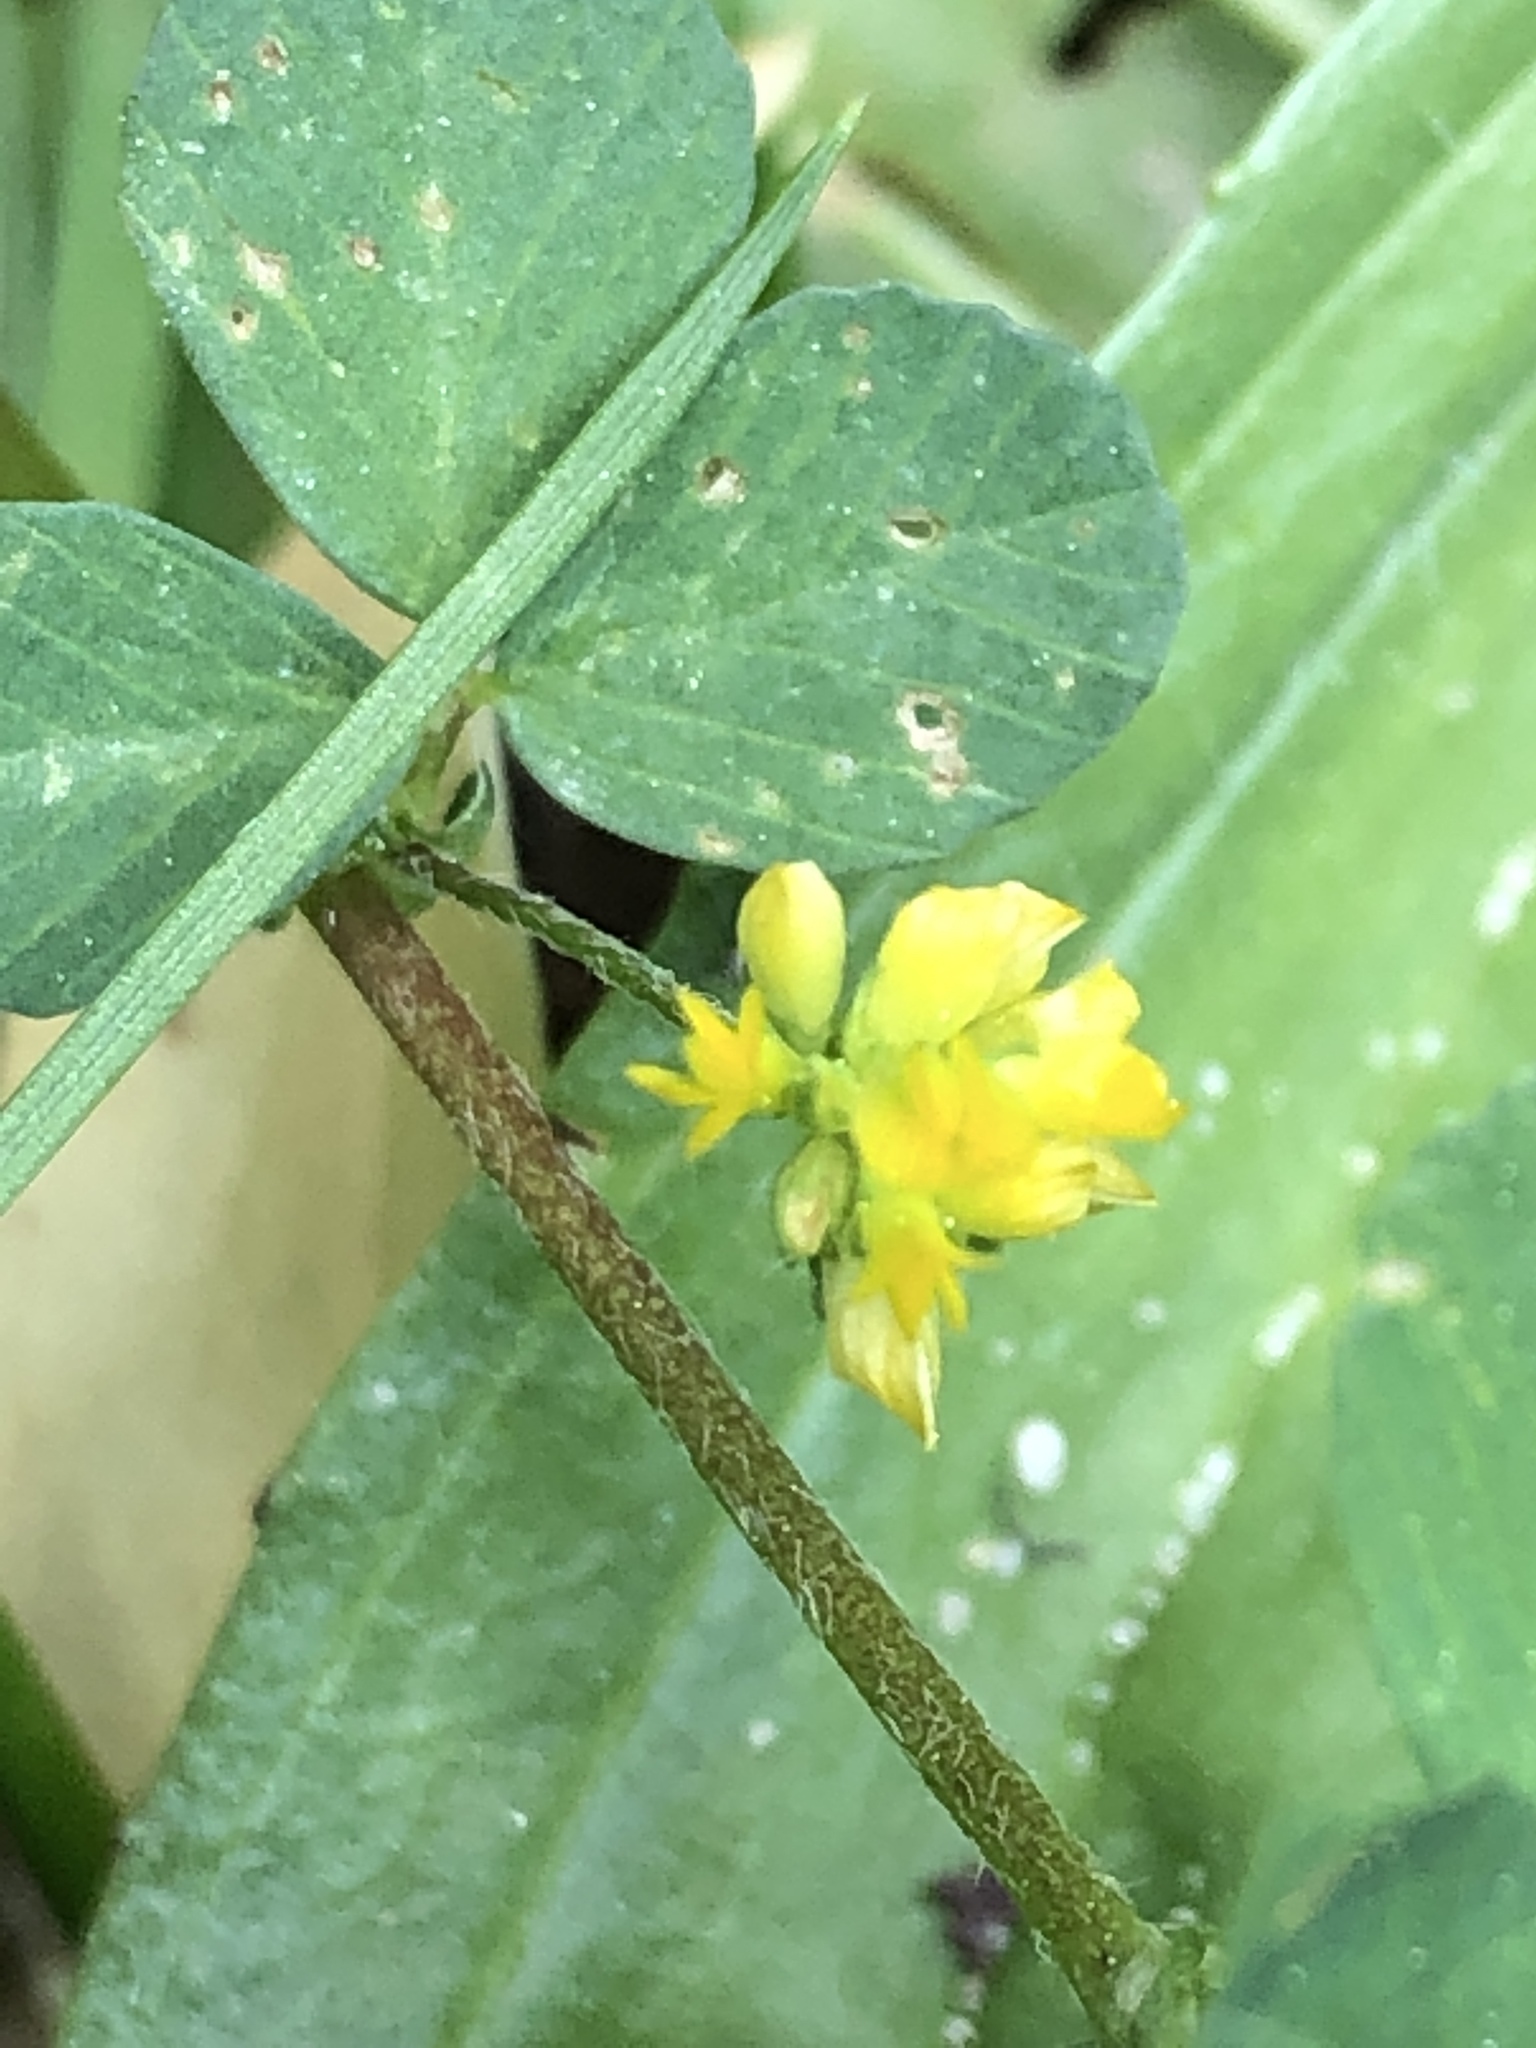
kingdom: Plantae
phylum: Tracheophyta
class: Magnoliopsida
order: Fabales
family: Fabaceae
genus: Trifolium
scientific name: Trifolium dubium
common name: Suckling clover
